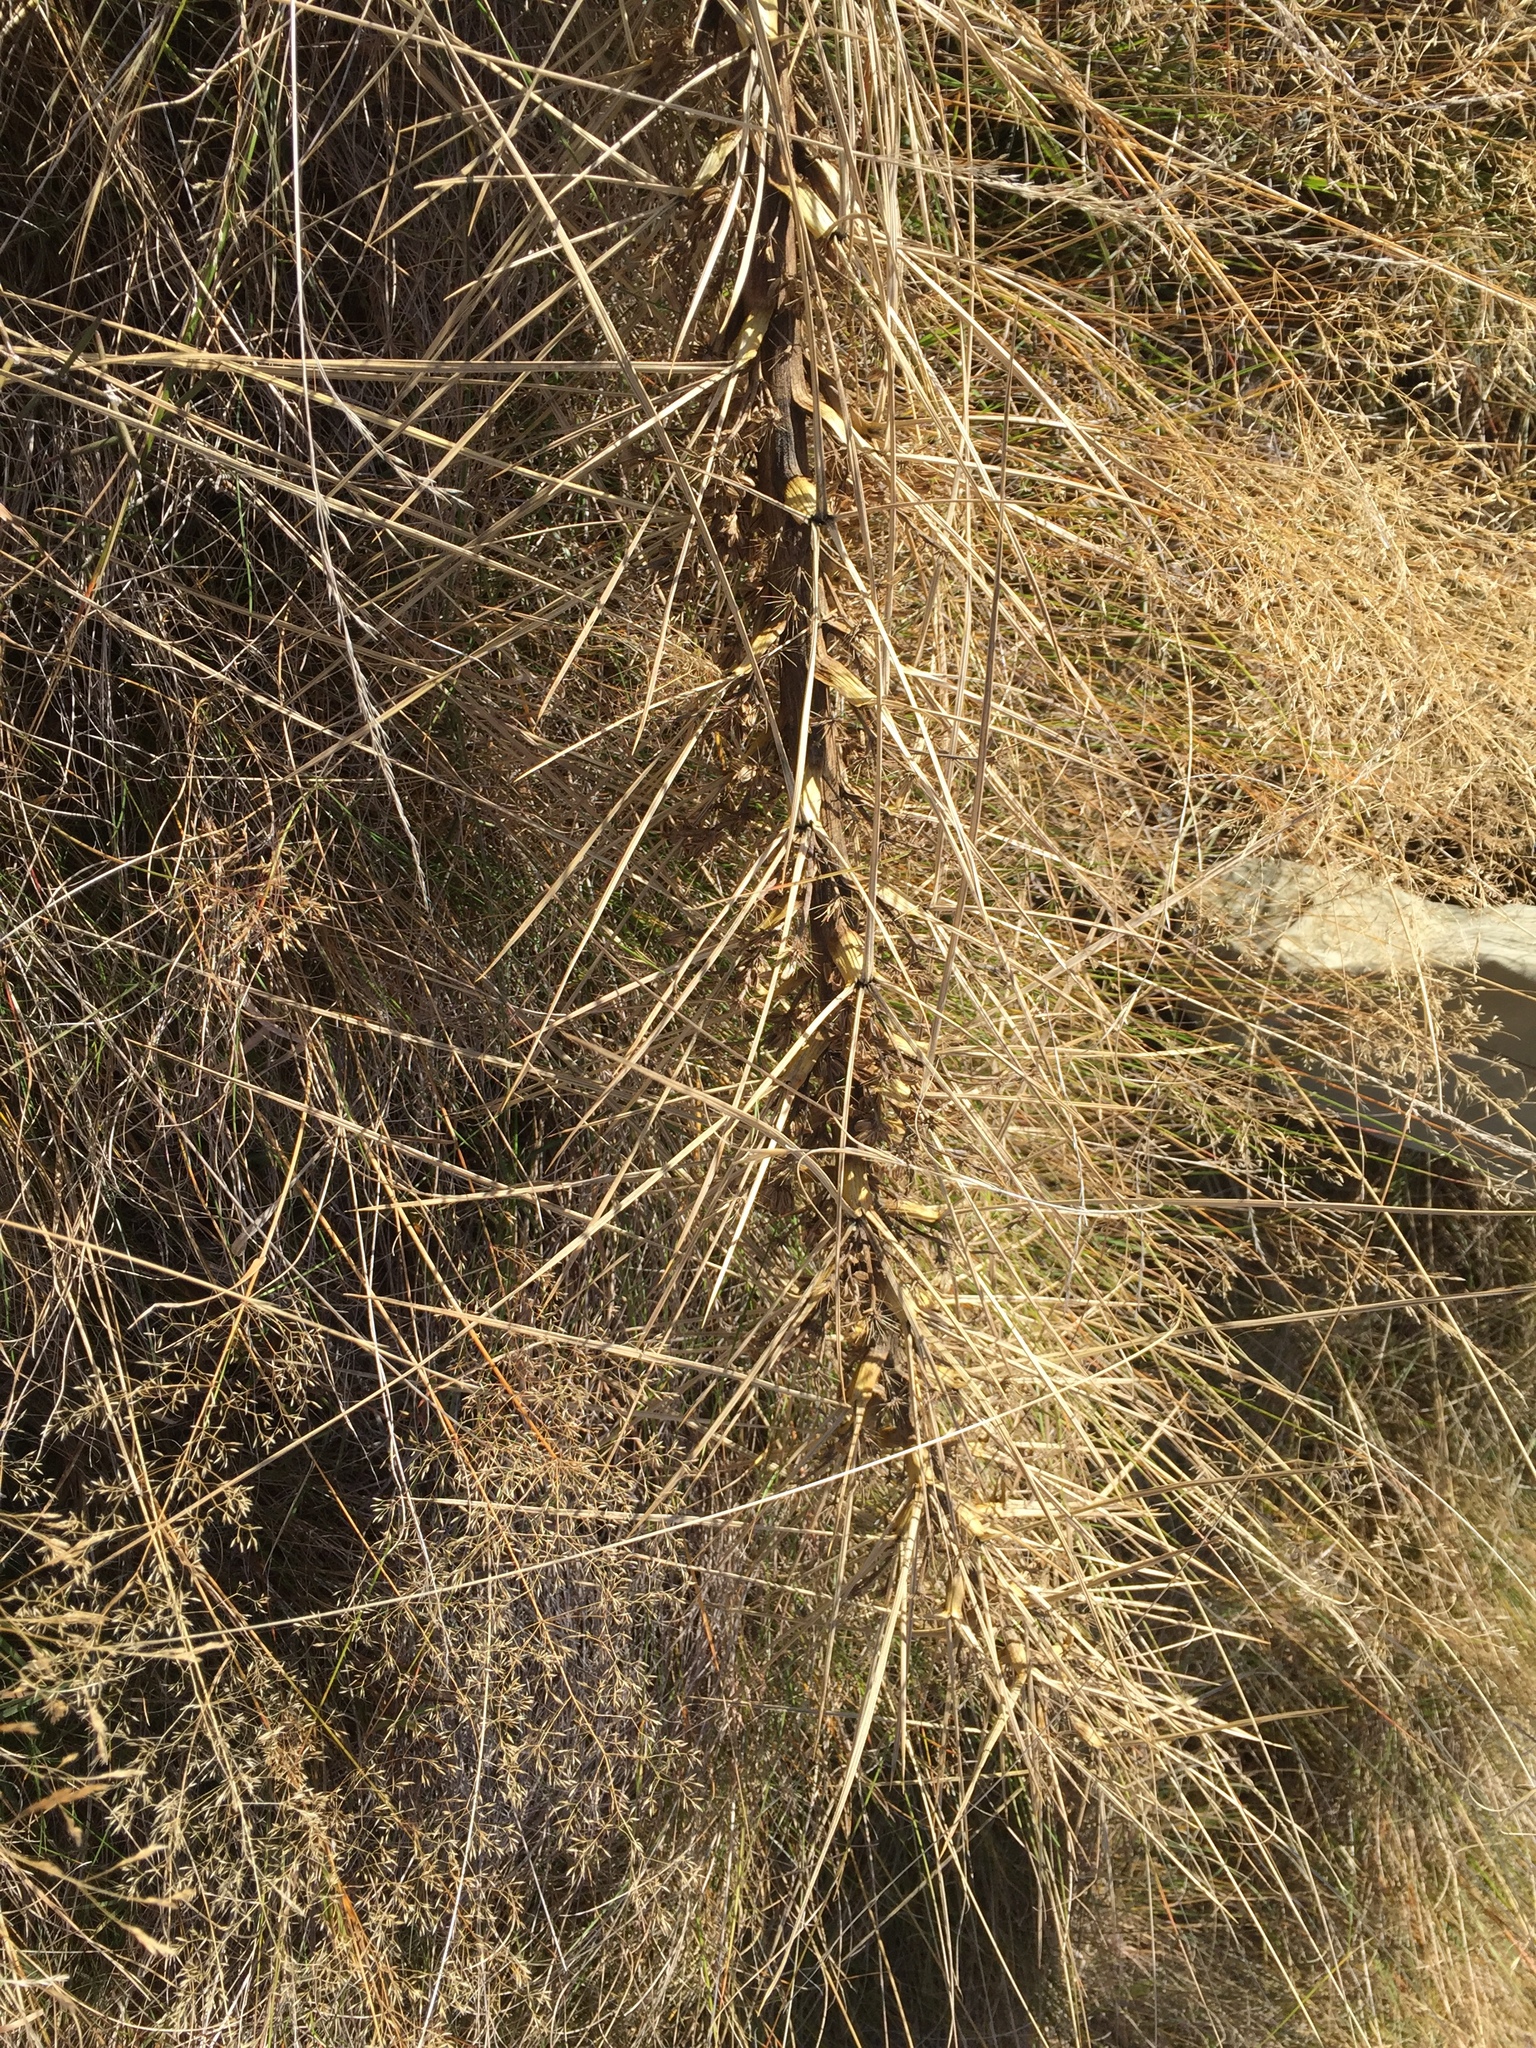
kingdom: Plantae
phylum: Tracheophyta
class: Magnoliopsida
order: Apiales
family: Apiaceae
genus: Aciphylla
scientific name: Aciphylla subflabellata
